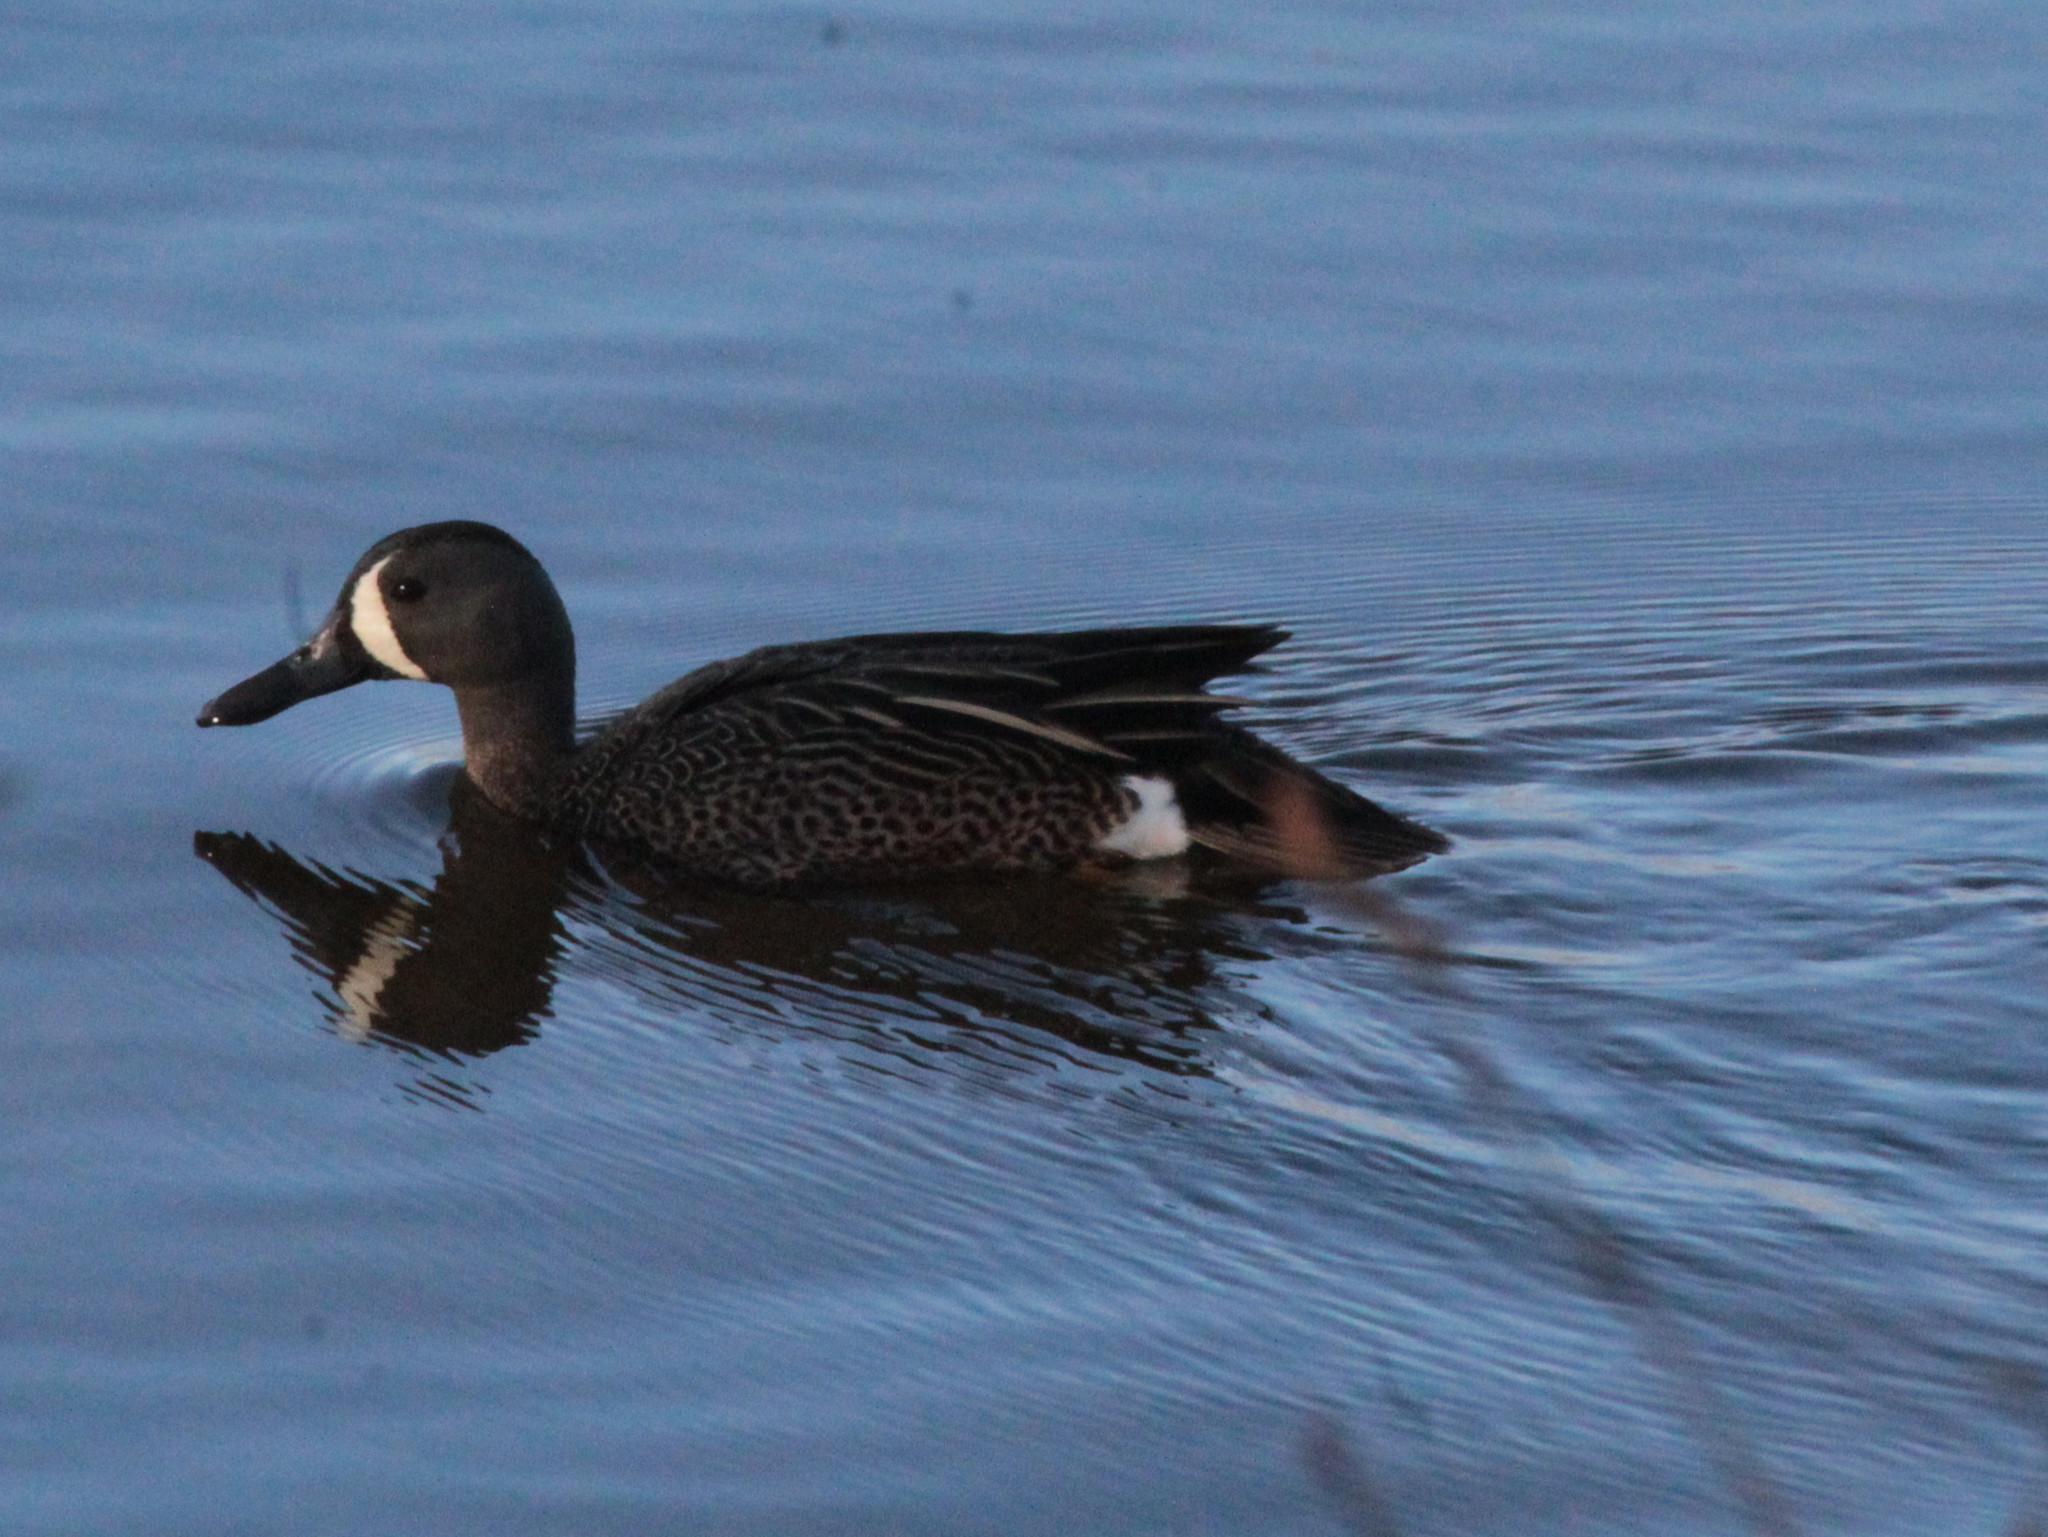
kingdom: Animalia
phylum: Chordata
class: Aves
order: Anseriformes
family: Anatidae
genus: Spatula
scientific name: Spatula discors
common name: Blue-winged teal
